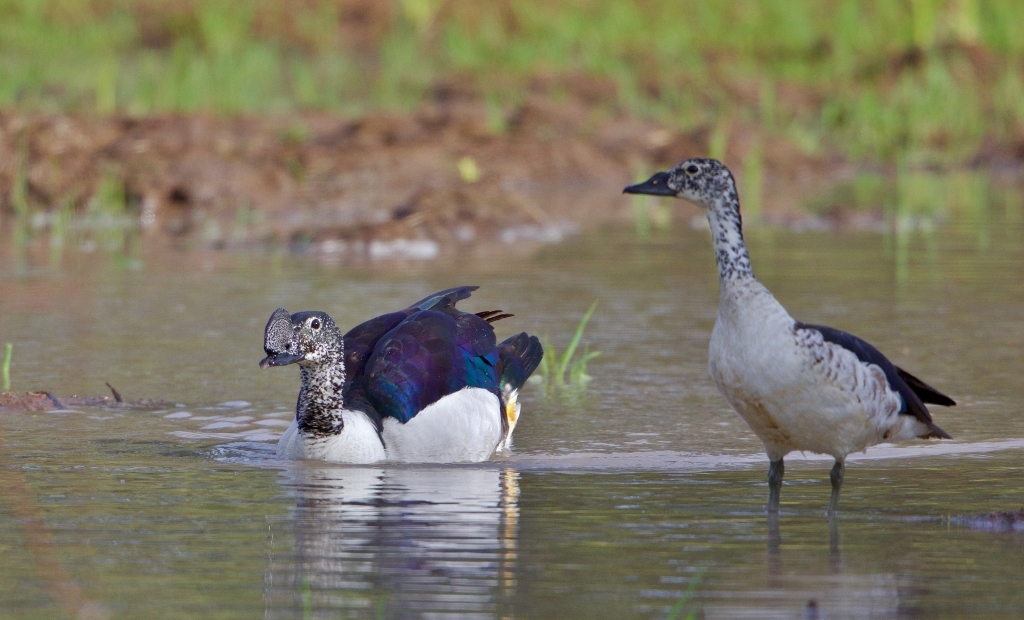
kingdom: Animalia
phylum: Chordata
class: Aves
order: Anseriformes
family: Anatidae
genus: Sarkidiornis
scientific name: Sarkidiornis melanotos
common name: Comb duck
